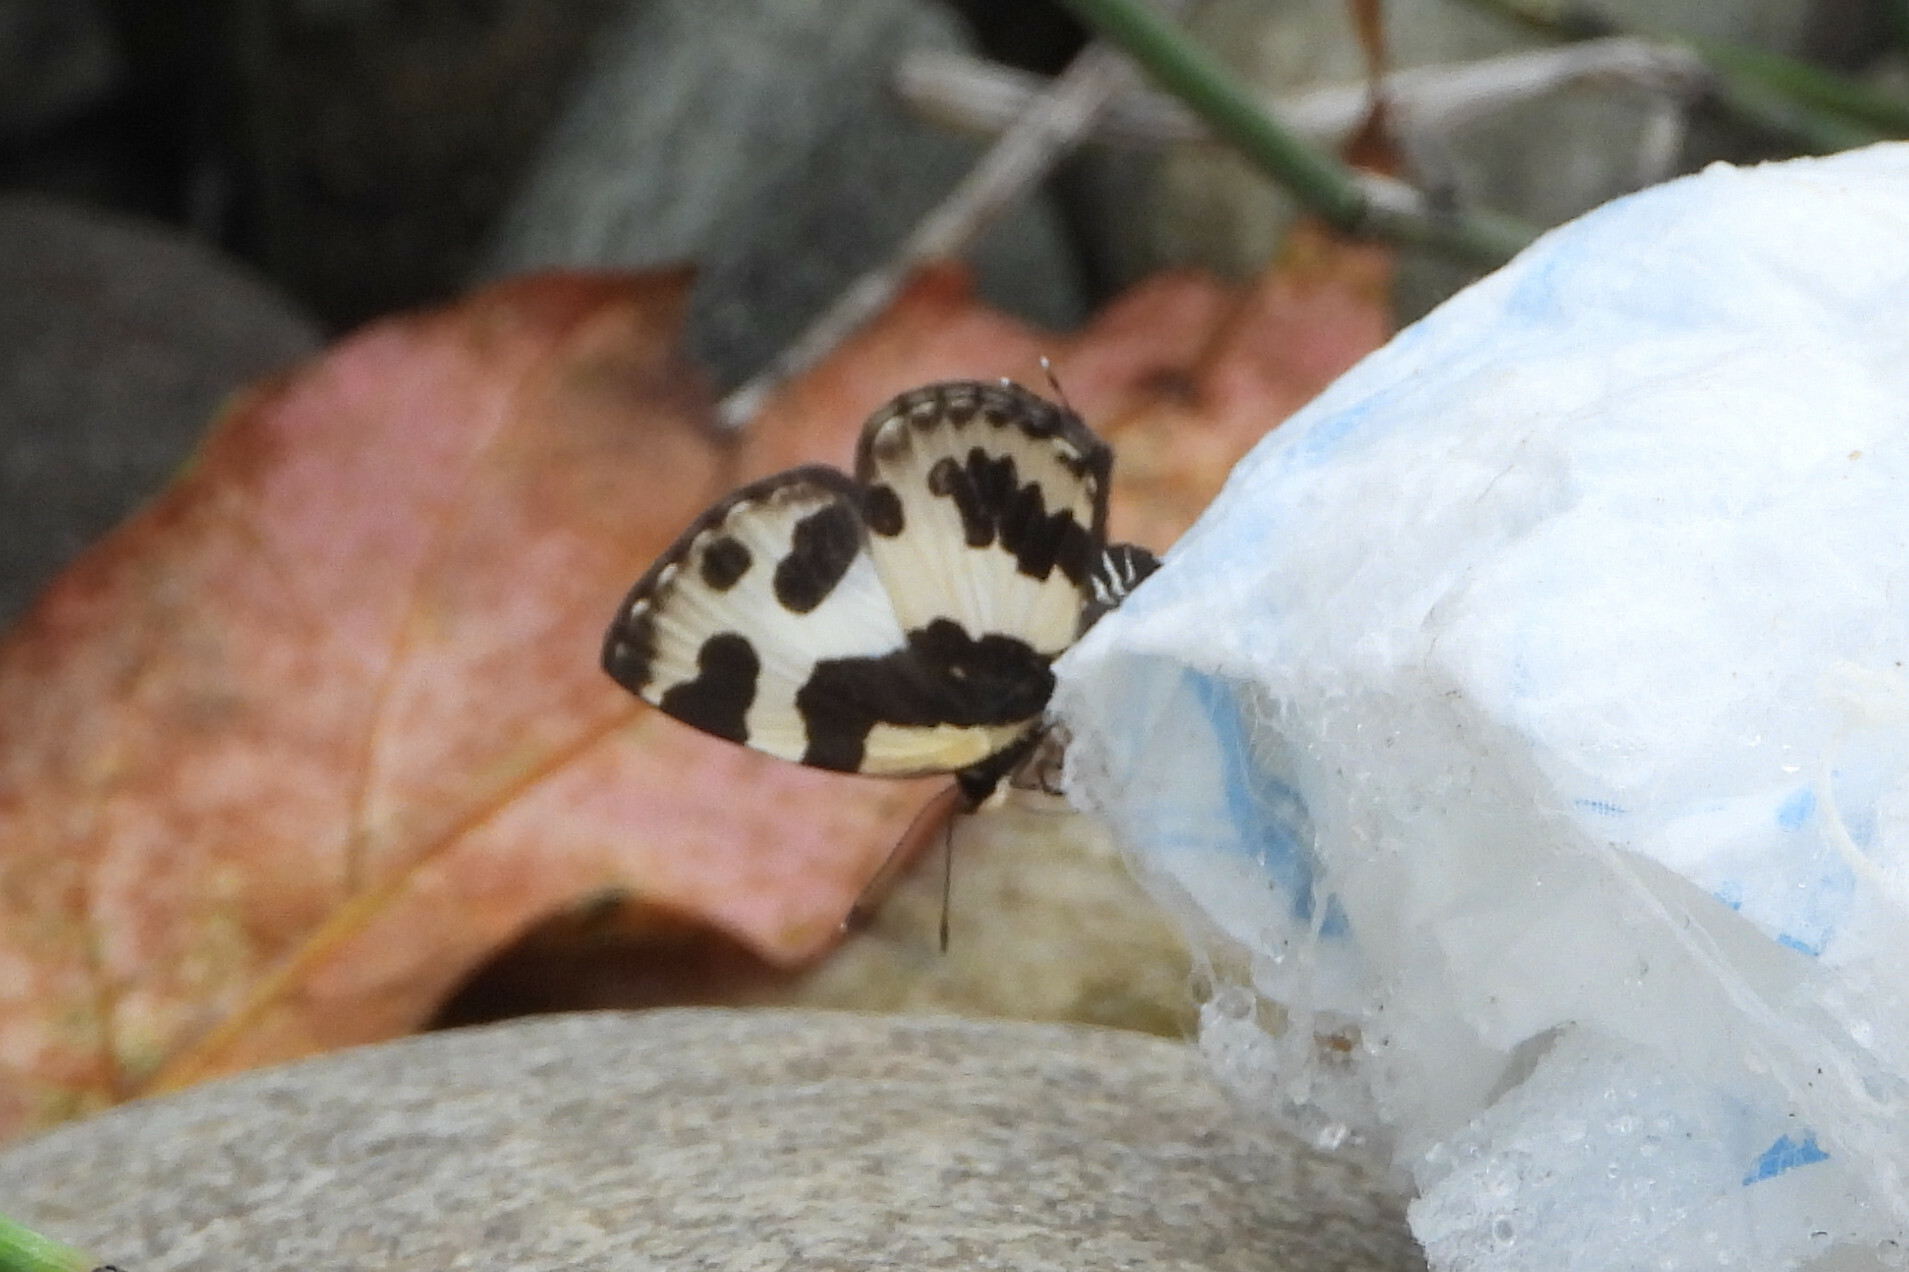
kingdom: Animalia
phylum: Arthropoda
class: Insecta
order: Lepidoptera
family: Lycaenidae
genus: Caleta
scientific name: Caleta elna
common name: Elbowed pierrot
